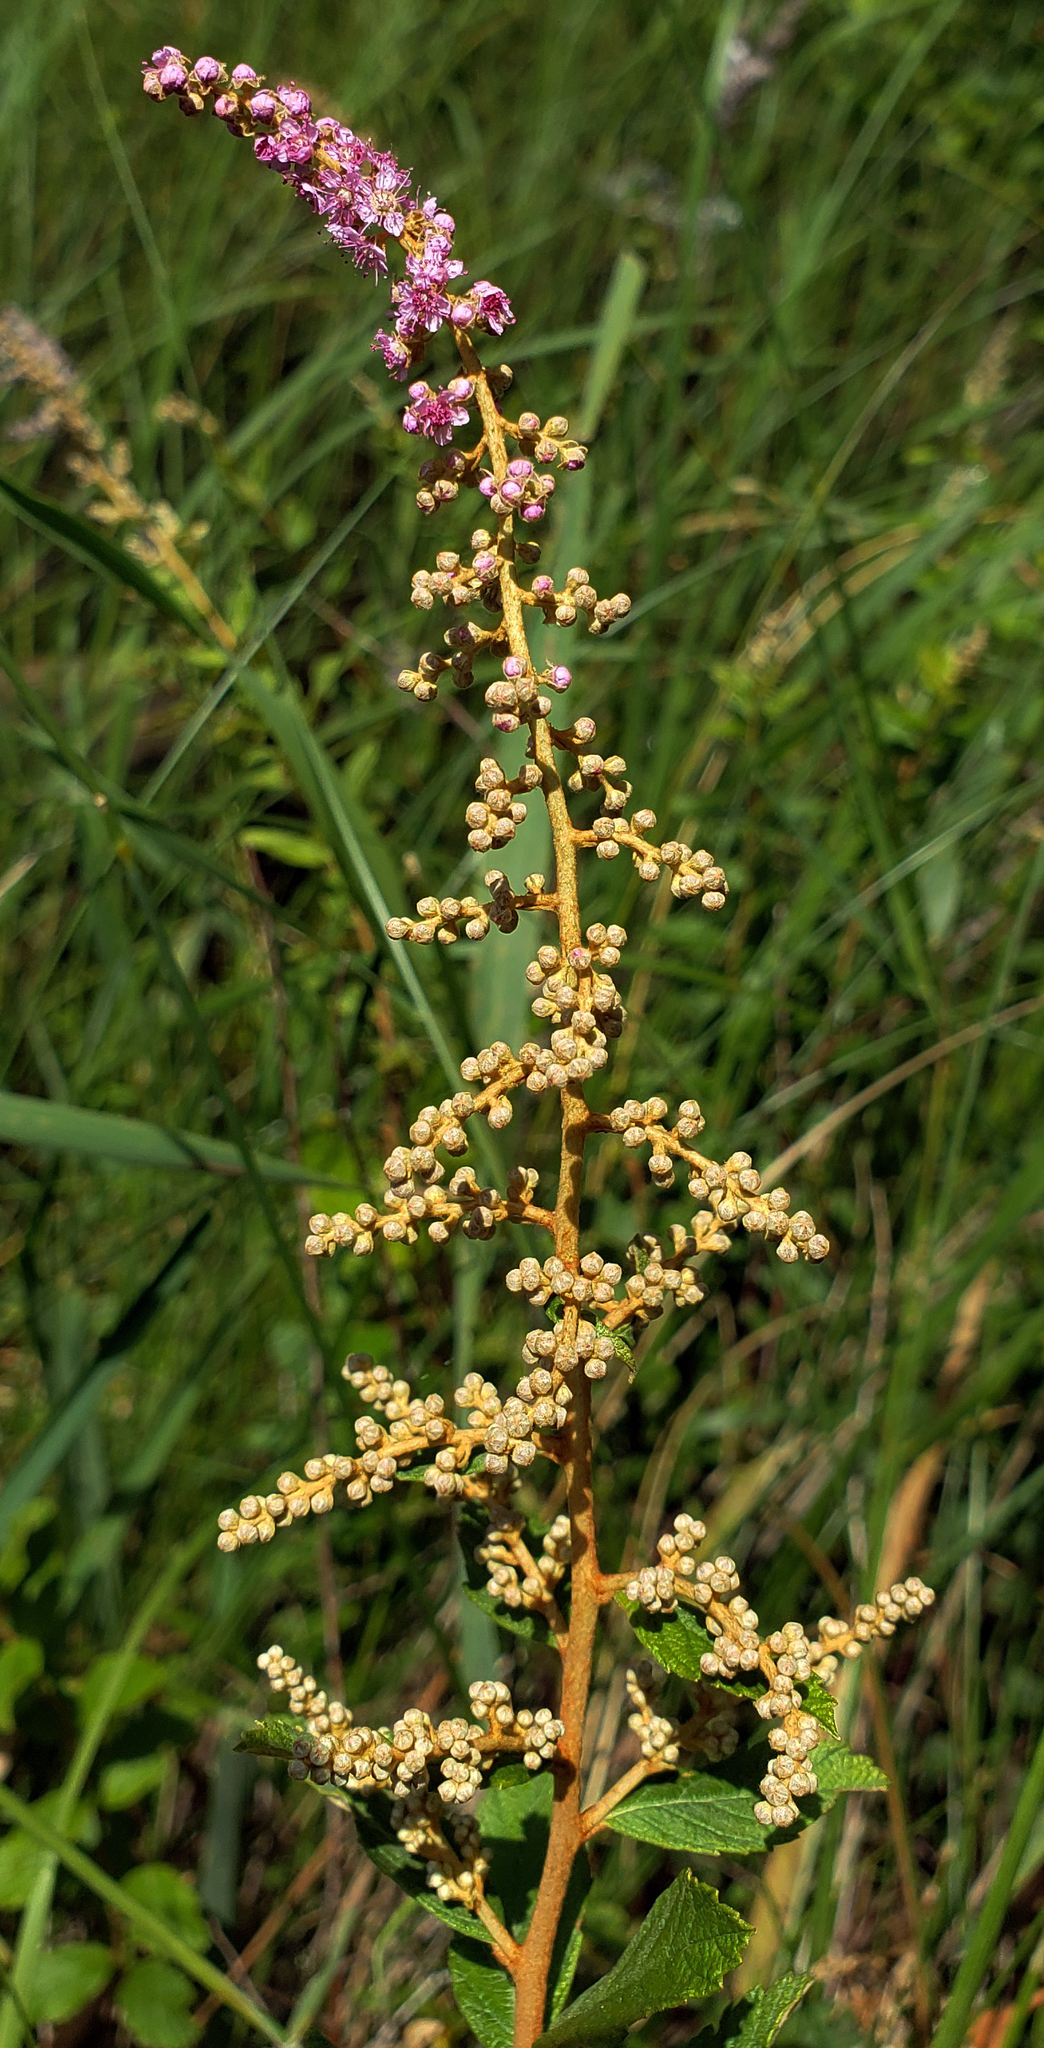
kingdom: Plantae
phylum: Tracheophyta
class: Magnoliopsida
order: Rosales
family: Rosaceae
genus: Spiraea
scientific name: Spiraea tomentosa
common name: Hardhack
